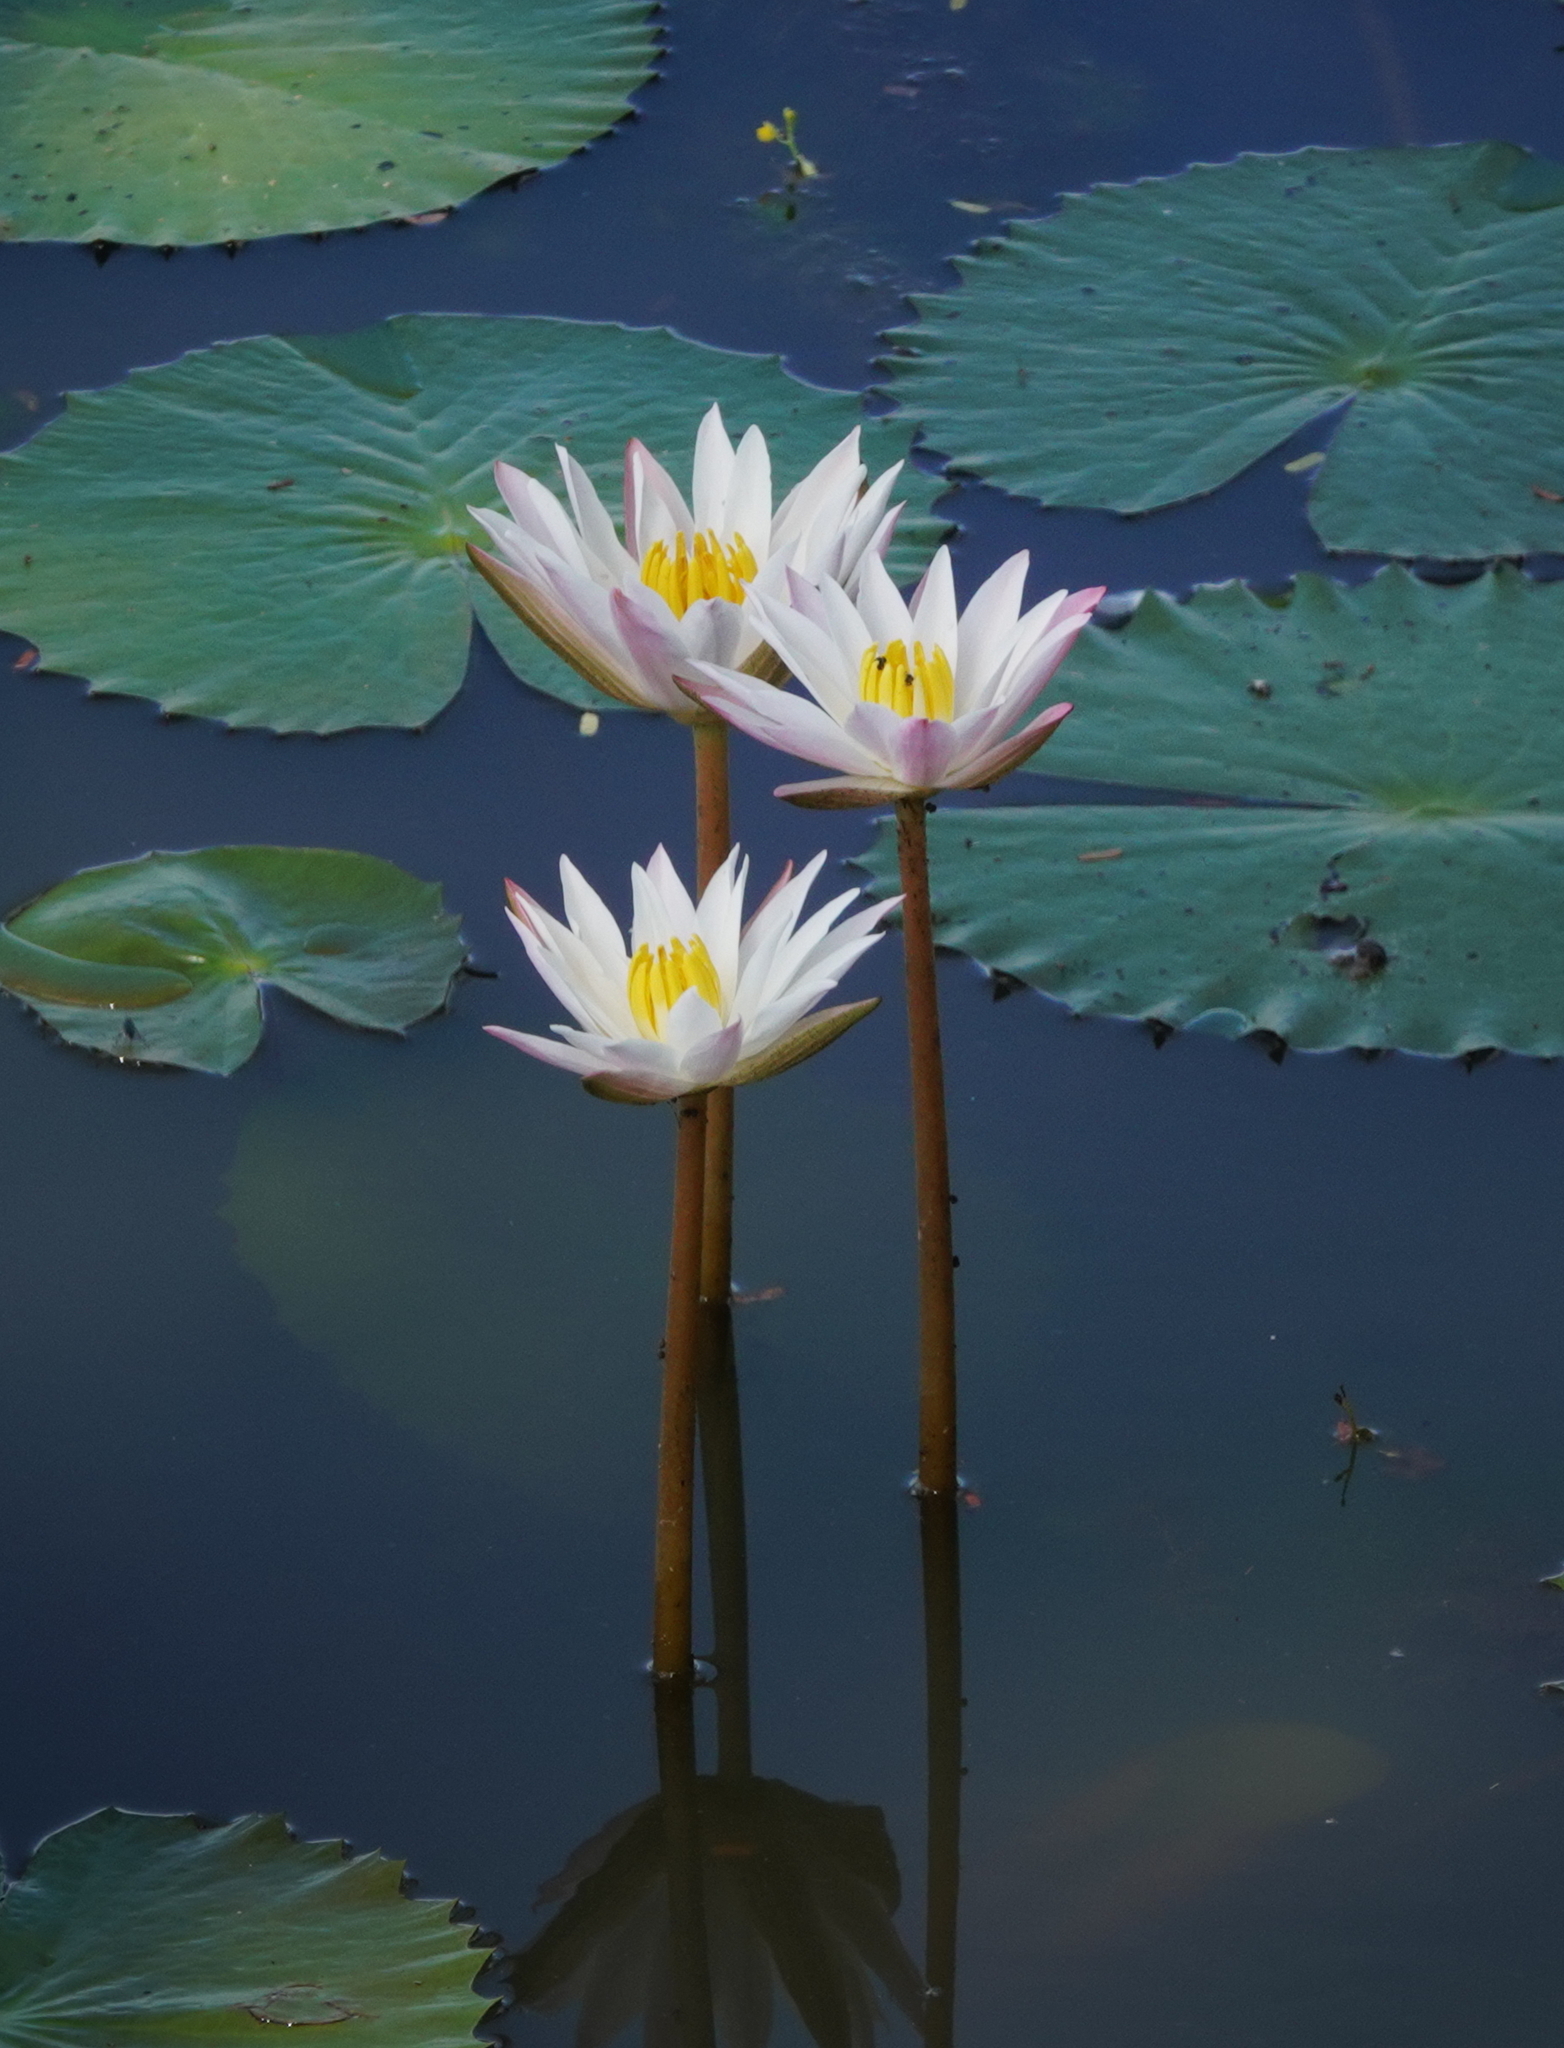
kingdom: Plantae
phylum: Tracheophyta
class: Magnoliopsida
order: Nymphaeales
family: Nymphaeaceae
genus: Nymphaea
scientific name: Nymphaea nouchali
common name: Blue lotus
